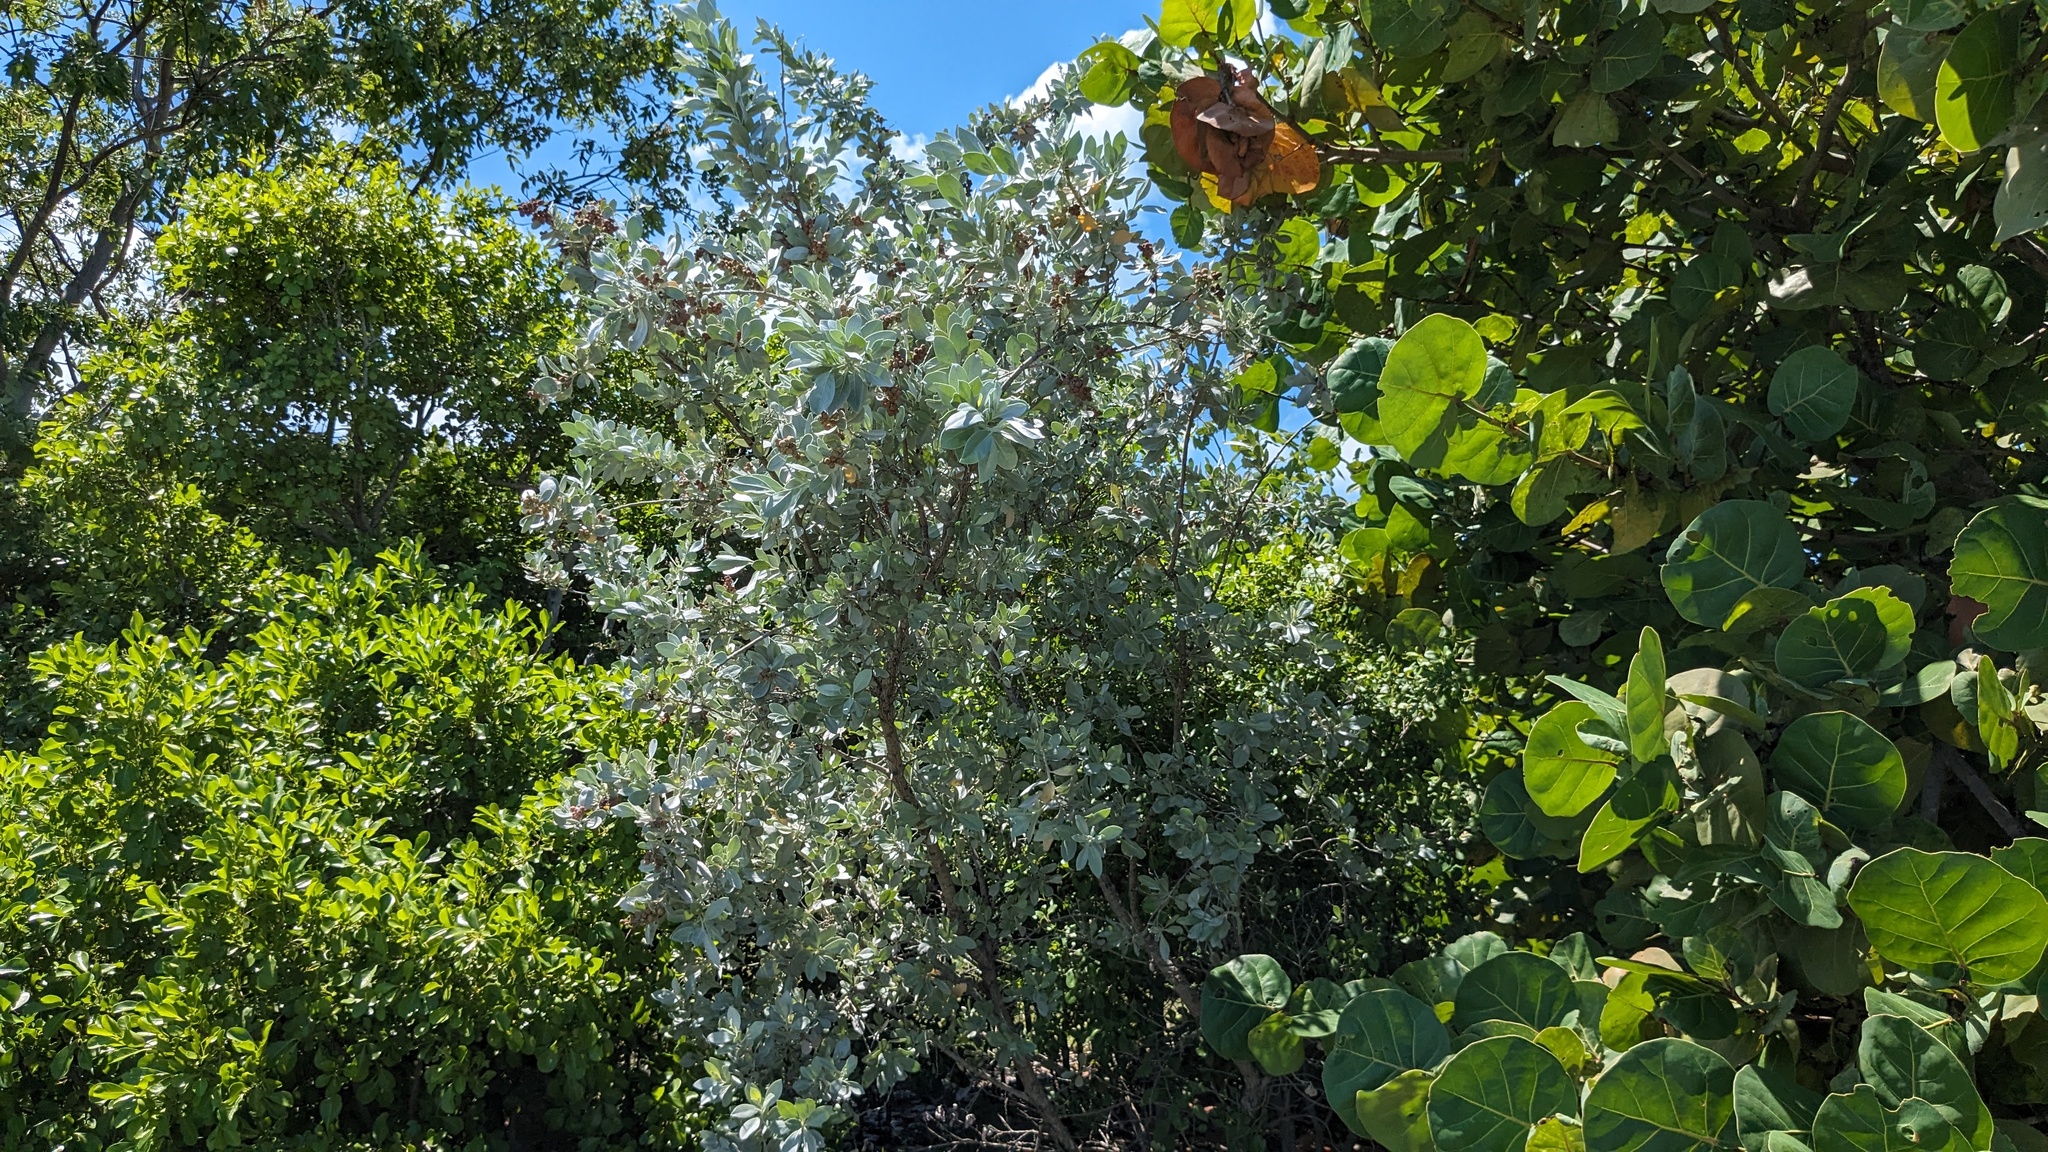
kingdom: Plantae
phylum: Tracheophyta
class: Magnoliopsida
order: Myrtales
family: Combretaceae
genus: Conocarpus
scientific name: Conocarpus erectus
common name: Button mangrove
